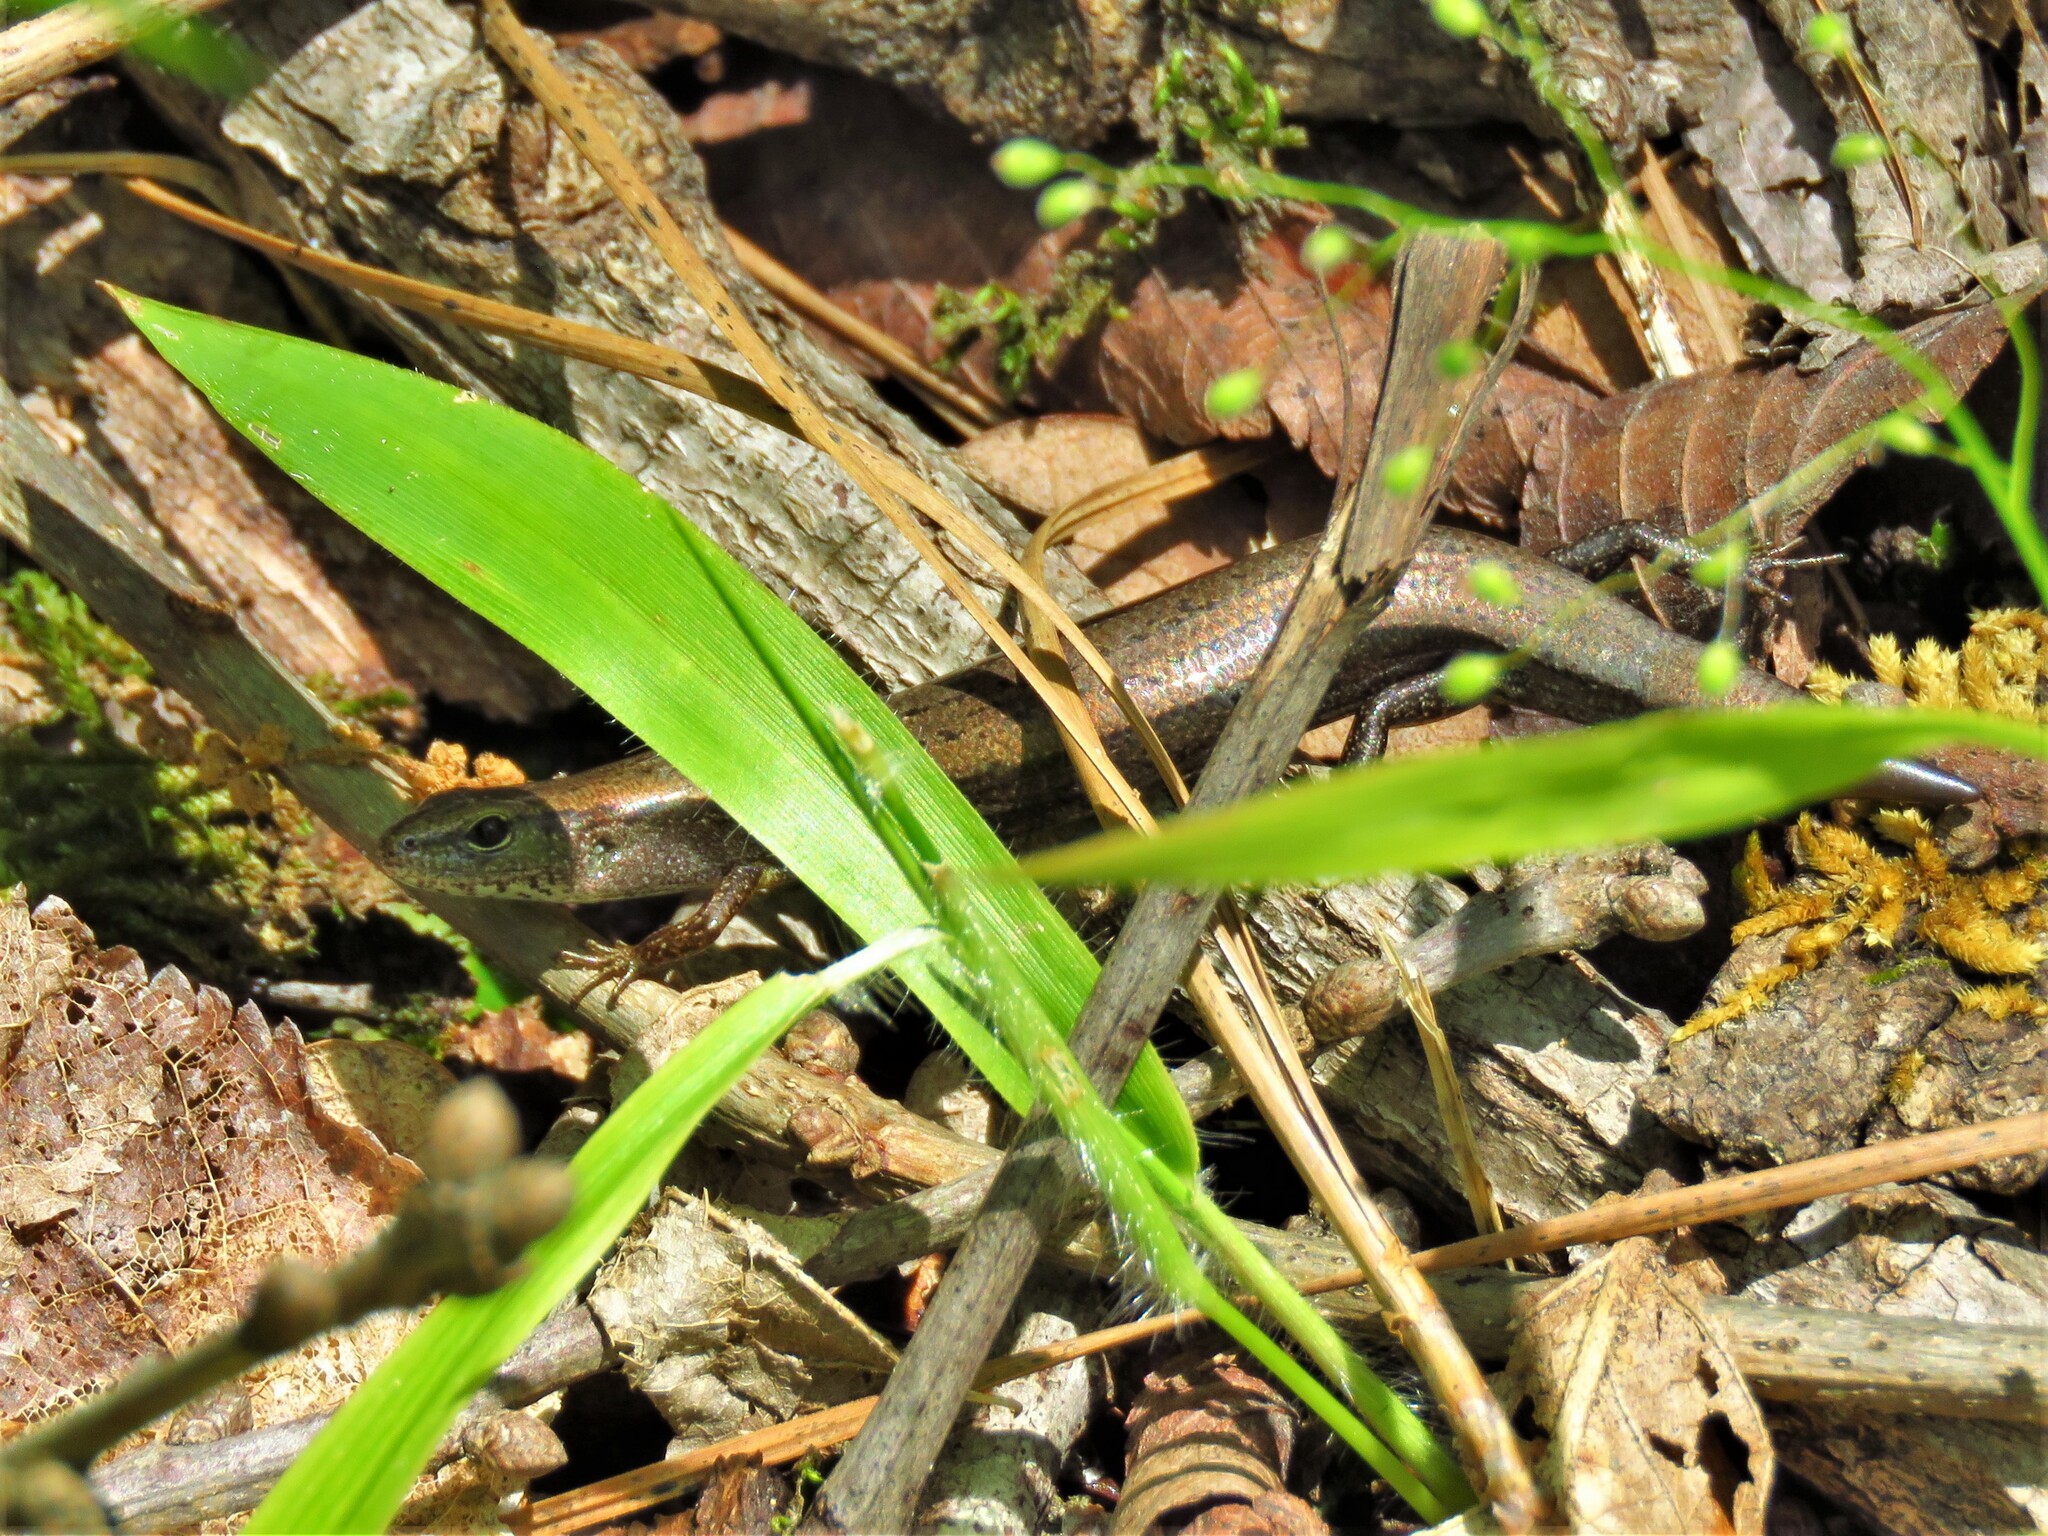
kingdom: Animalia
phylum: Chordata
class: Squamata
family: Scincidae
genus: Scincella
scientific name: Scincella lateralis
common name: Ground skink
